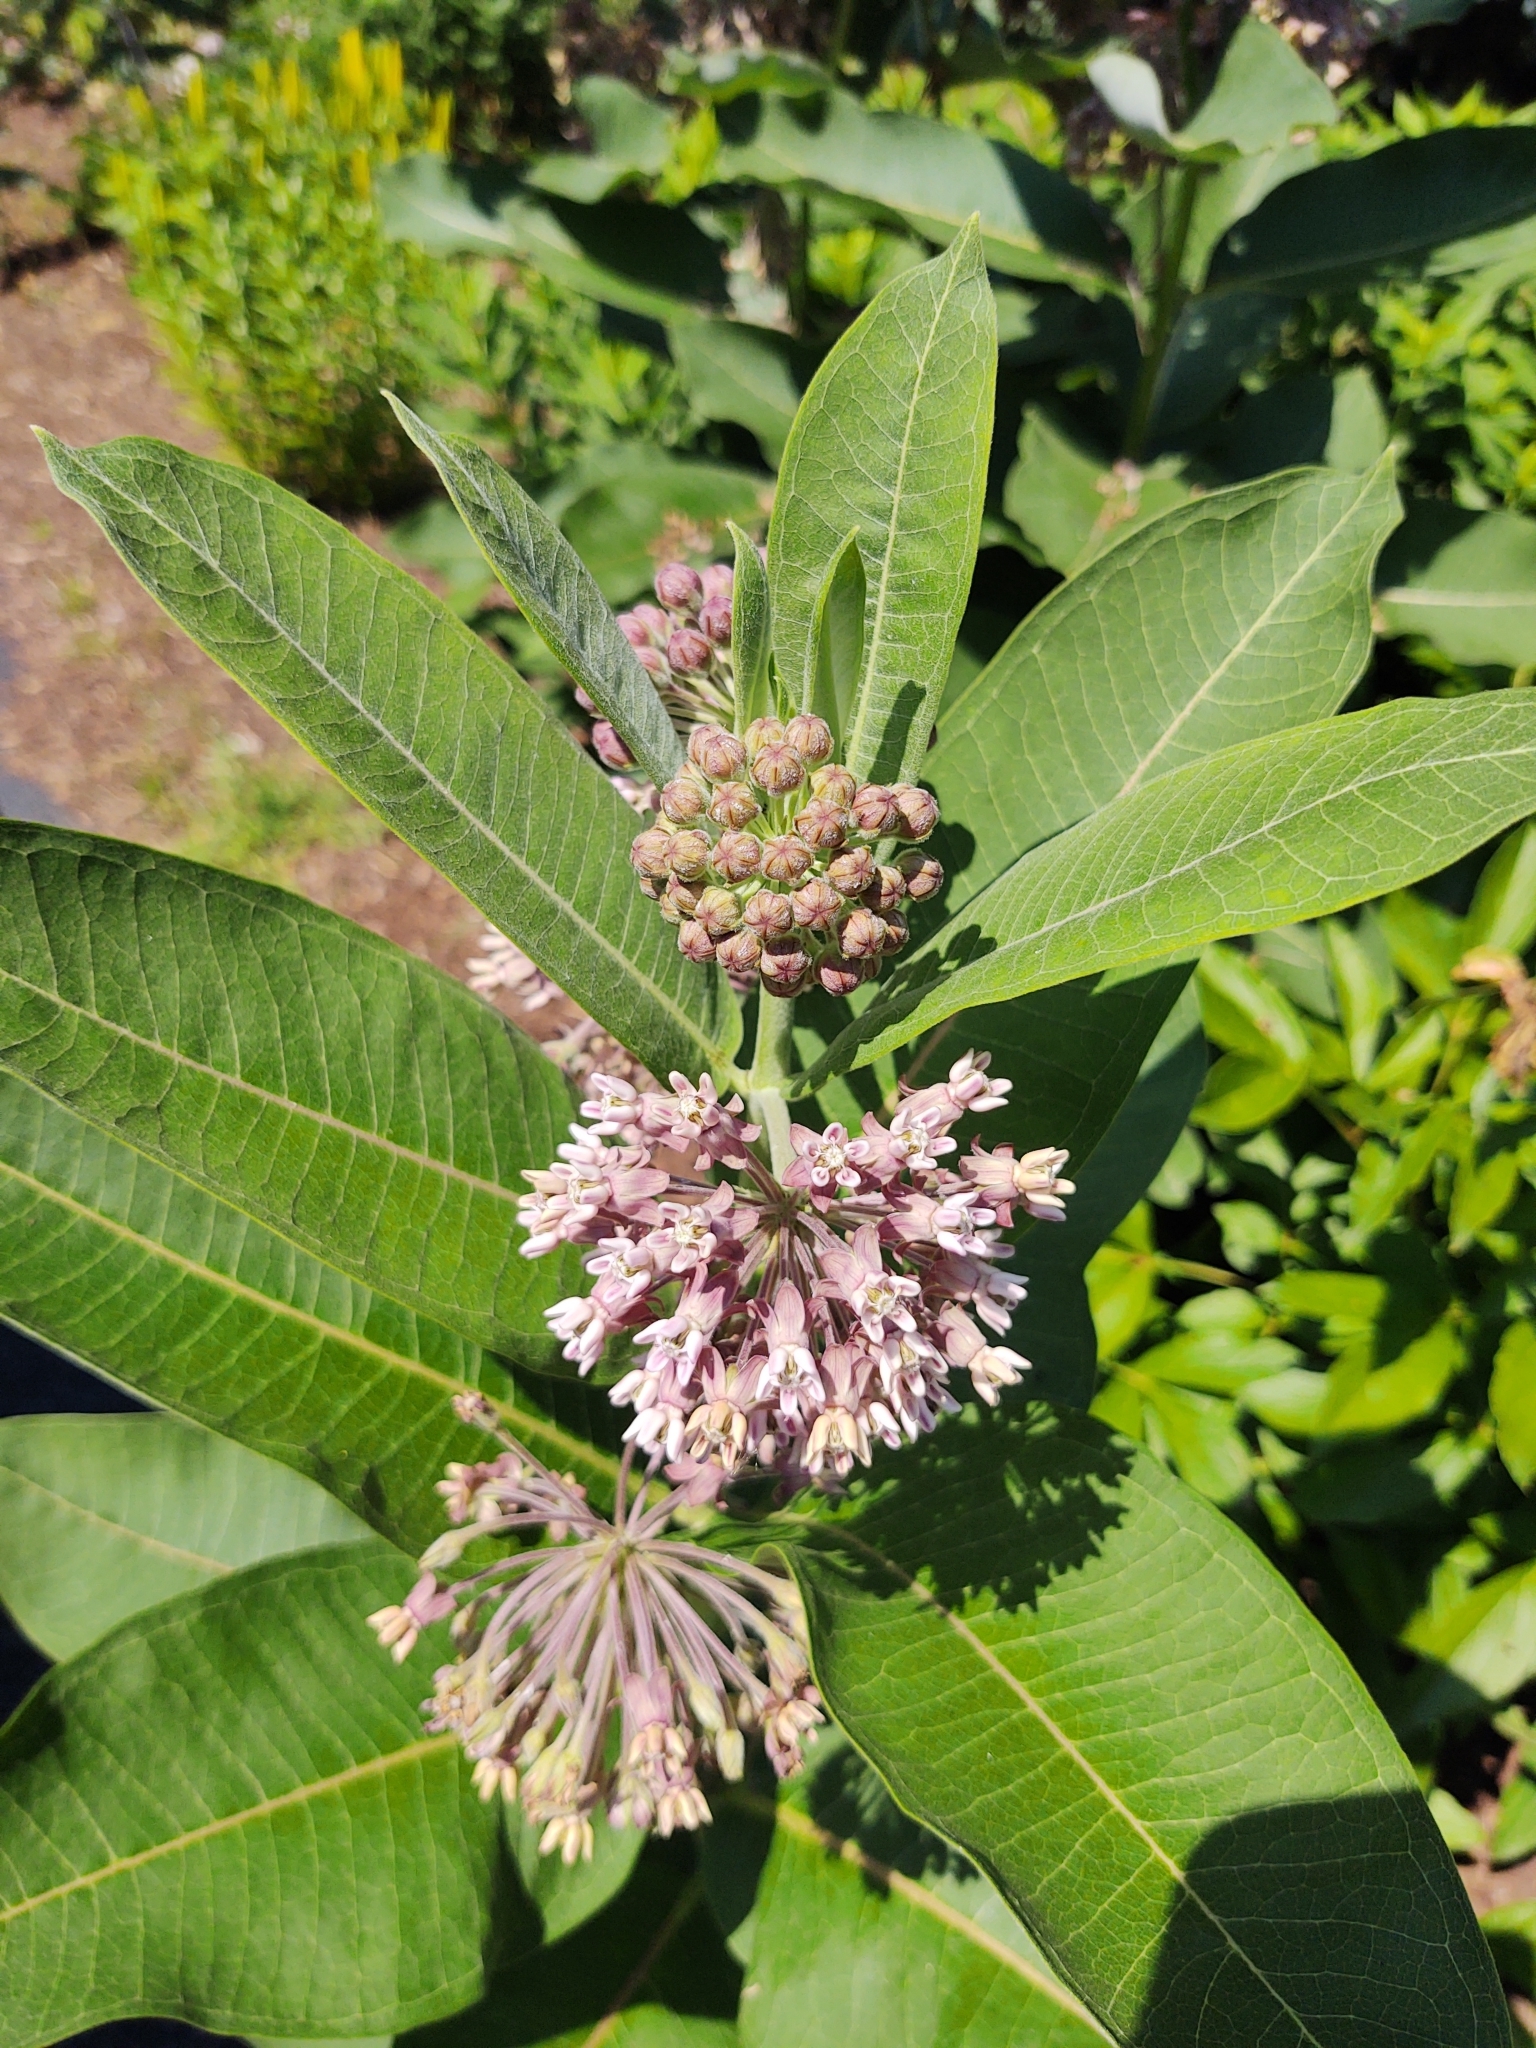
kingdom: Plantae
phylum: Tracheophyta
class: Magnoliopsida
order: Gentianales
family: Apocynaceae
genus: Asclepias
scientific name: Asclepias syriaca
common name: Common milkweed
